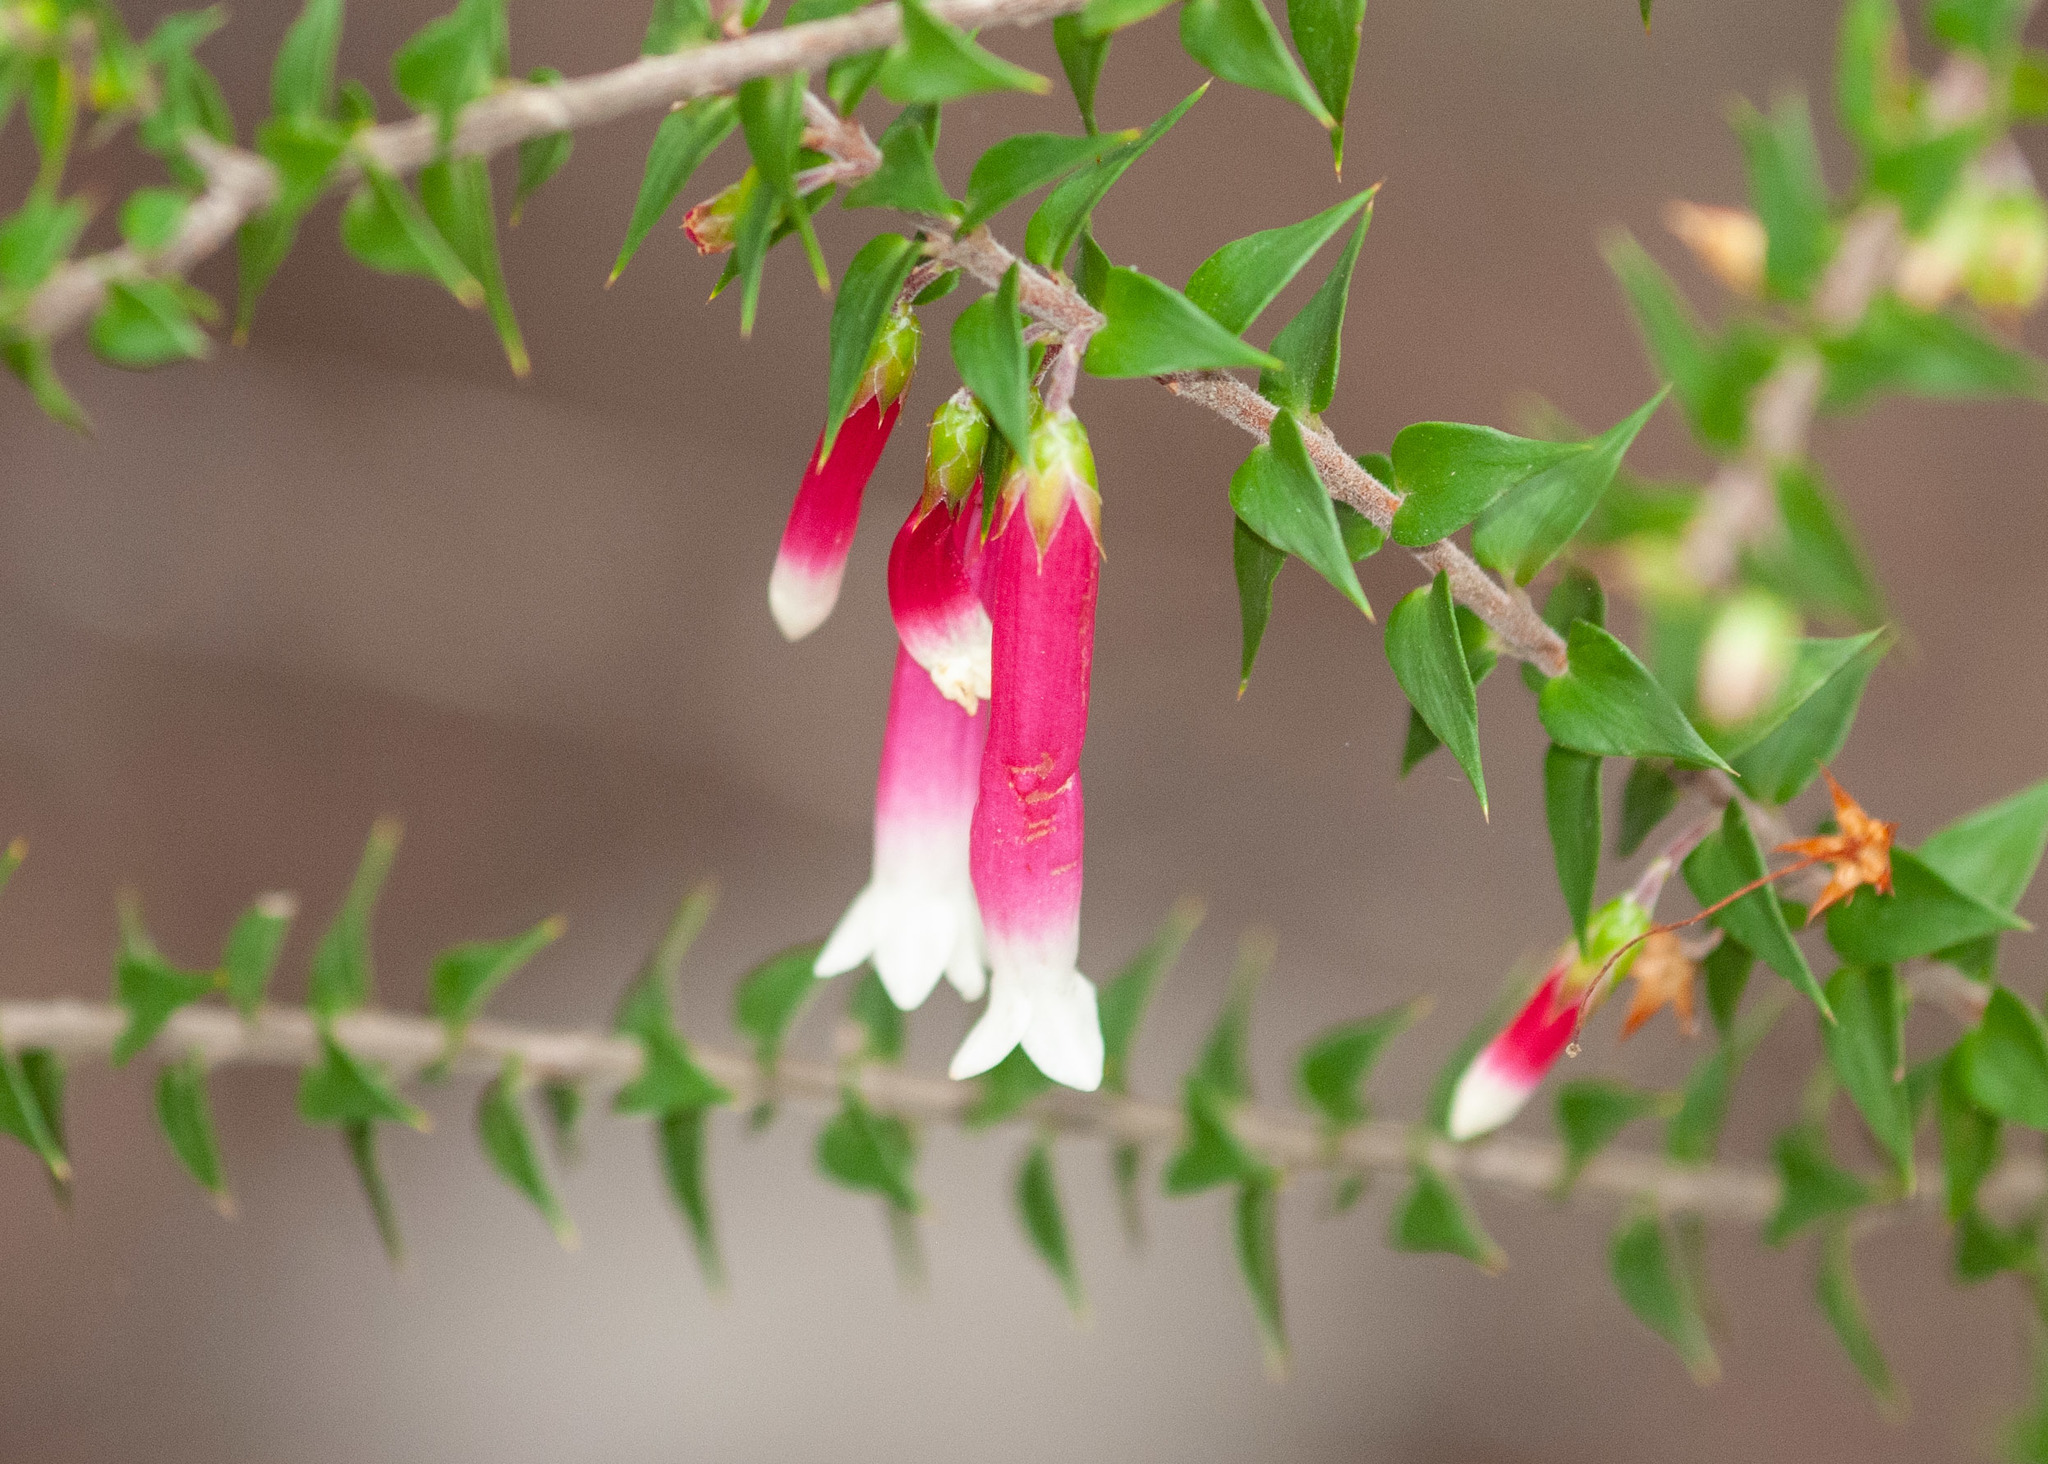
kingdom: Plantae
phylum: Tracheophyta
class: Magnoliopsida
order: Ericales
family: Ericaceae
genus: Epacris
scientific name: Epacris longiflora
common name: Fuchsia-heath
